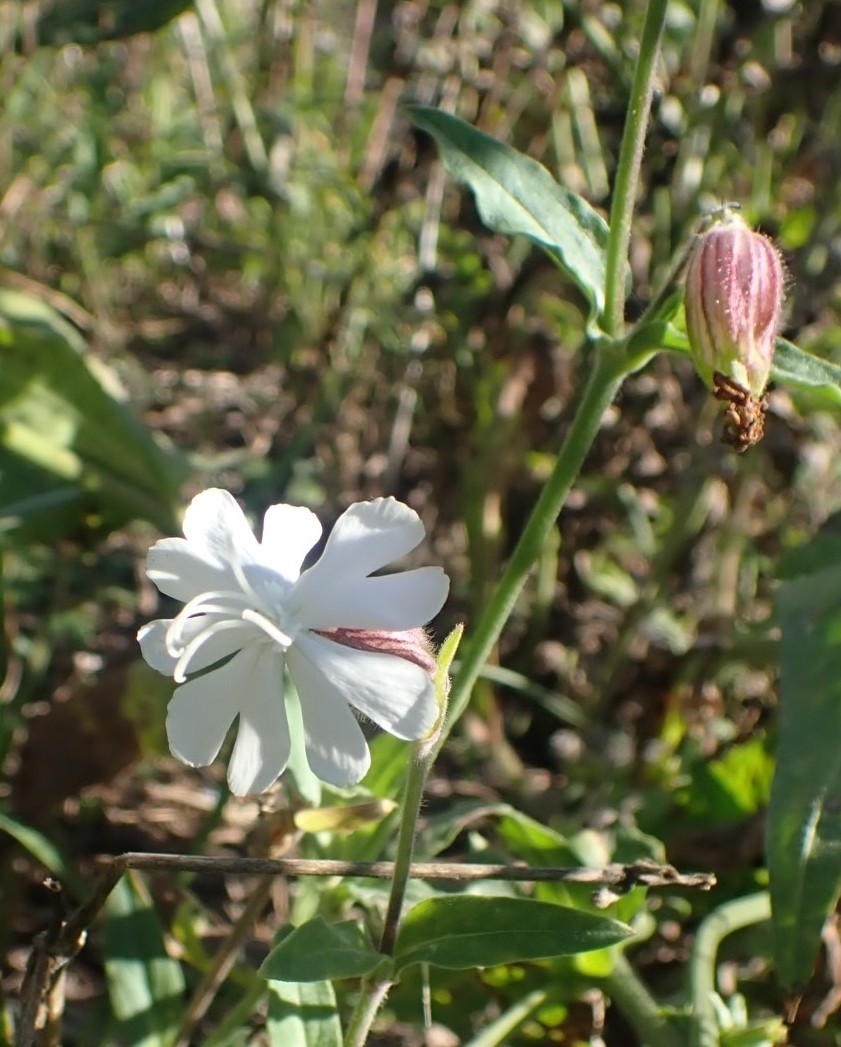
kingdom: Plantae
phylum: Tracheophyta
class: Magnoliopsida
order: Caryophyllales
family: Caryophyllaceae
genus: Silene
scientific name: Silene latifolia
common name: White campion
